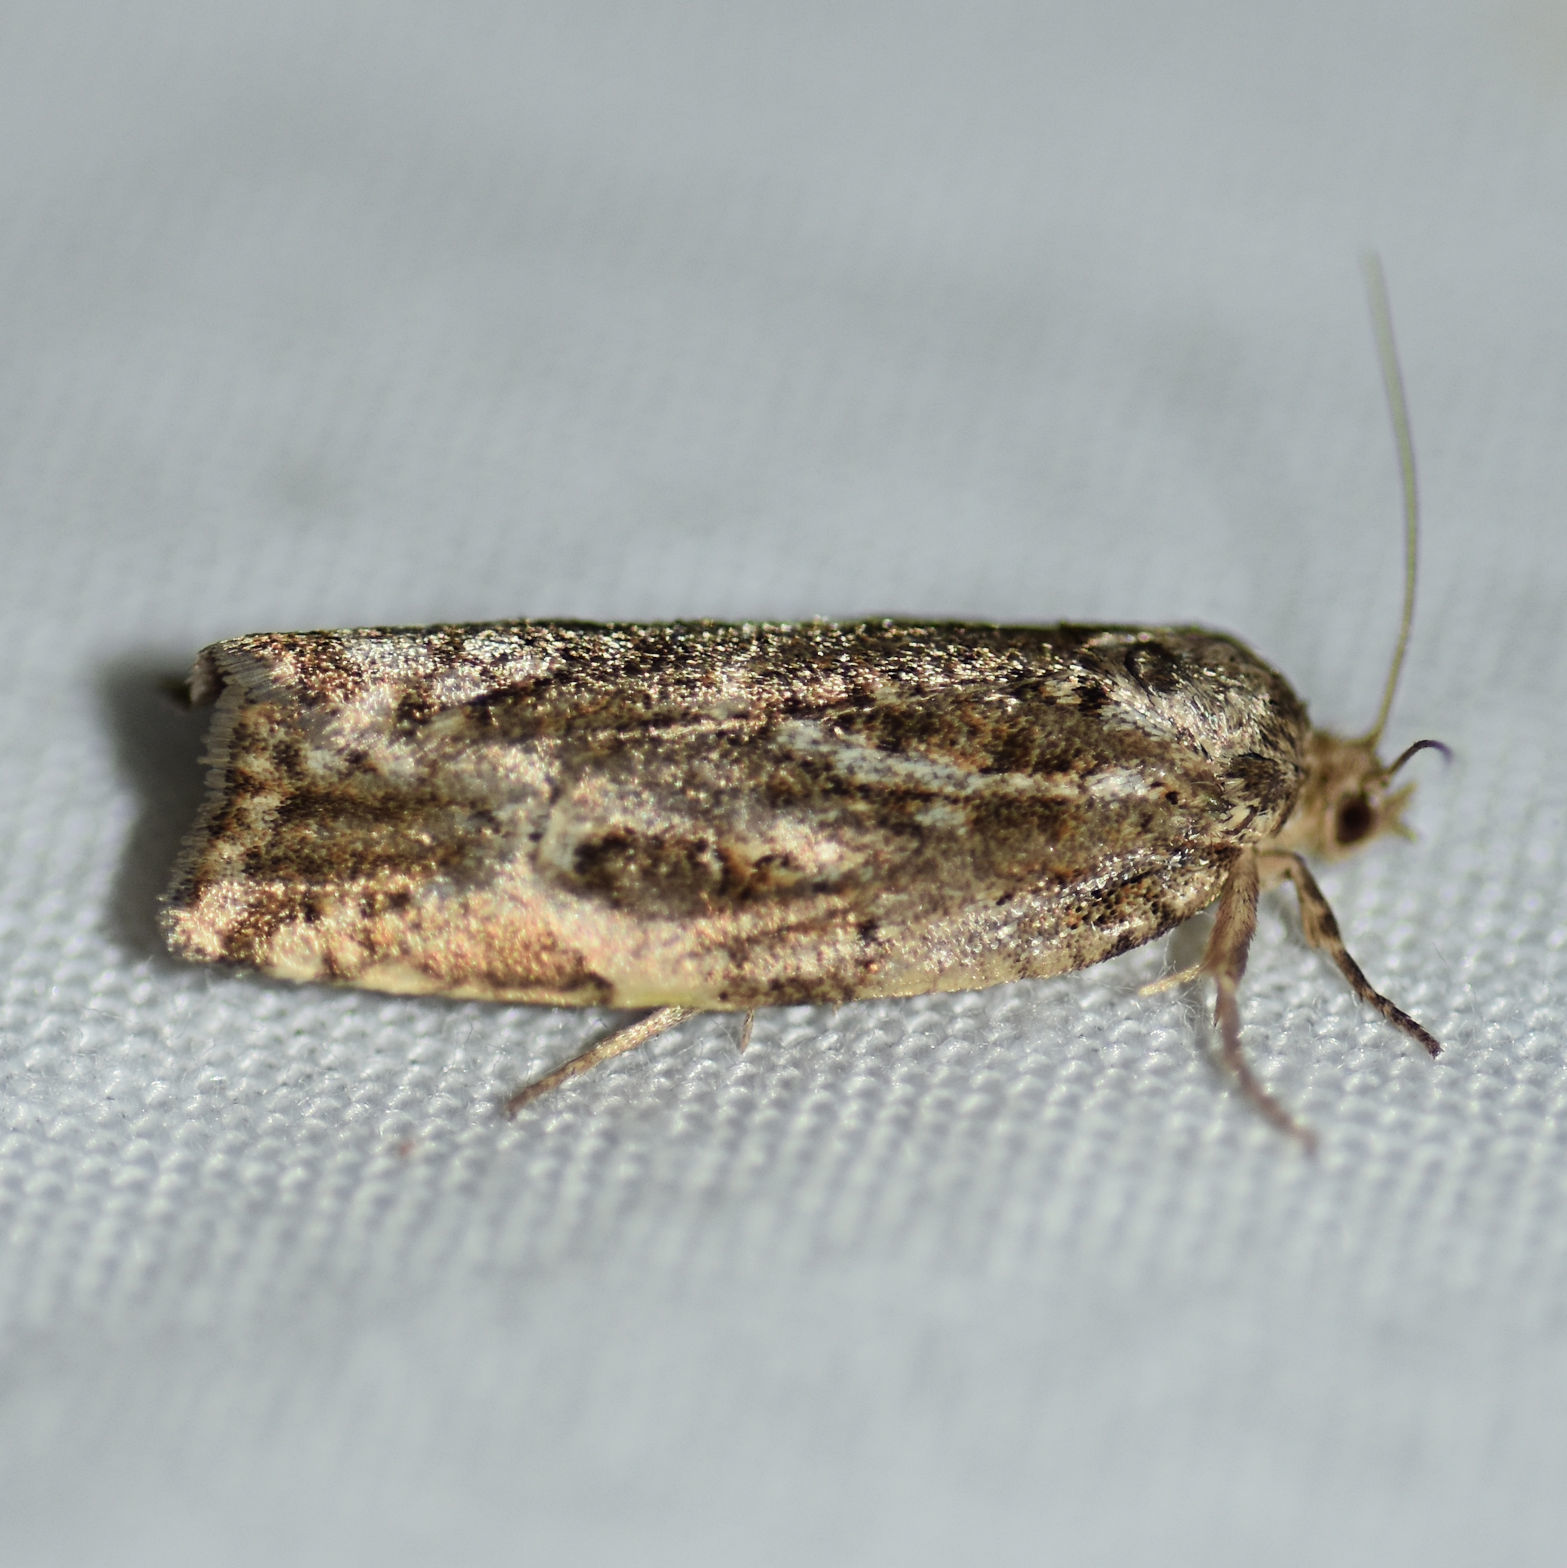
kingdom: Animalia
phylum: Arthropoda
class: Insecta
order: Lepidoptera
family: Tortricidae
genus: Choristoneura
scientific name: Choristoneura fumiferana
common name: Spruce budworm
